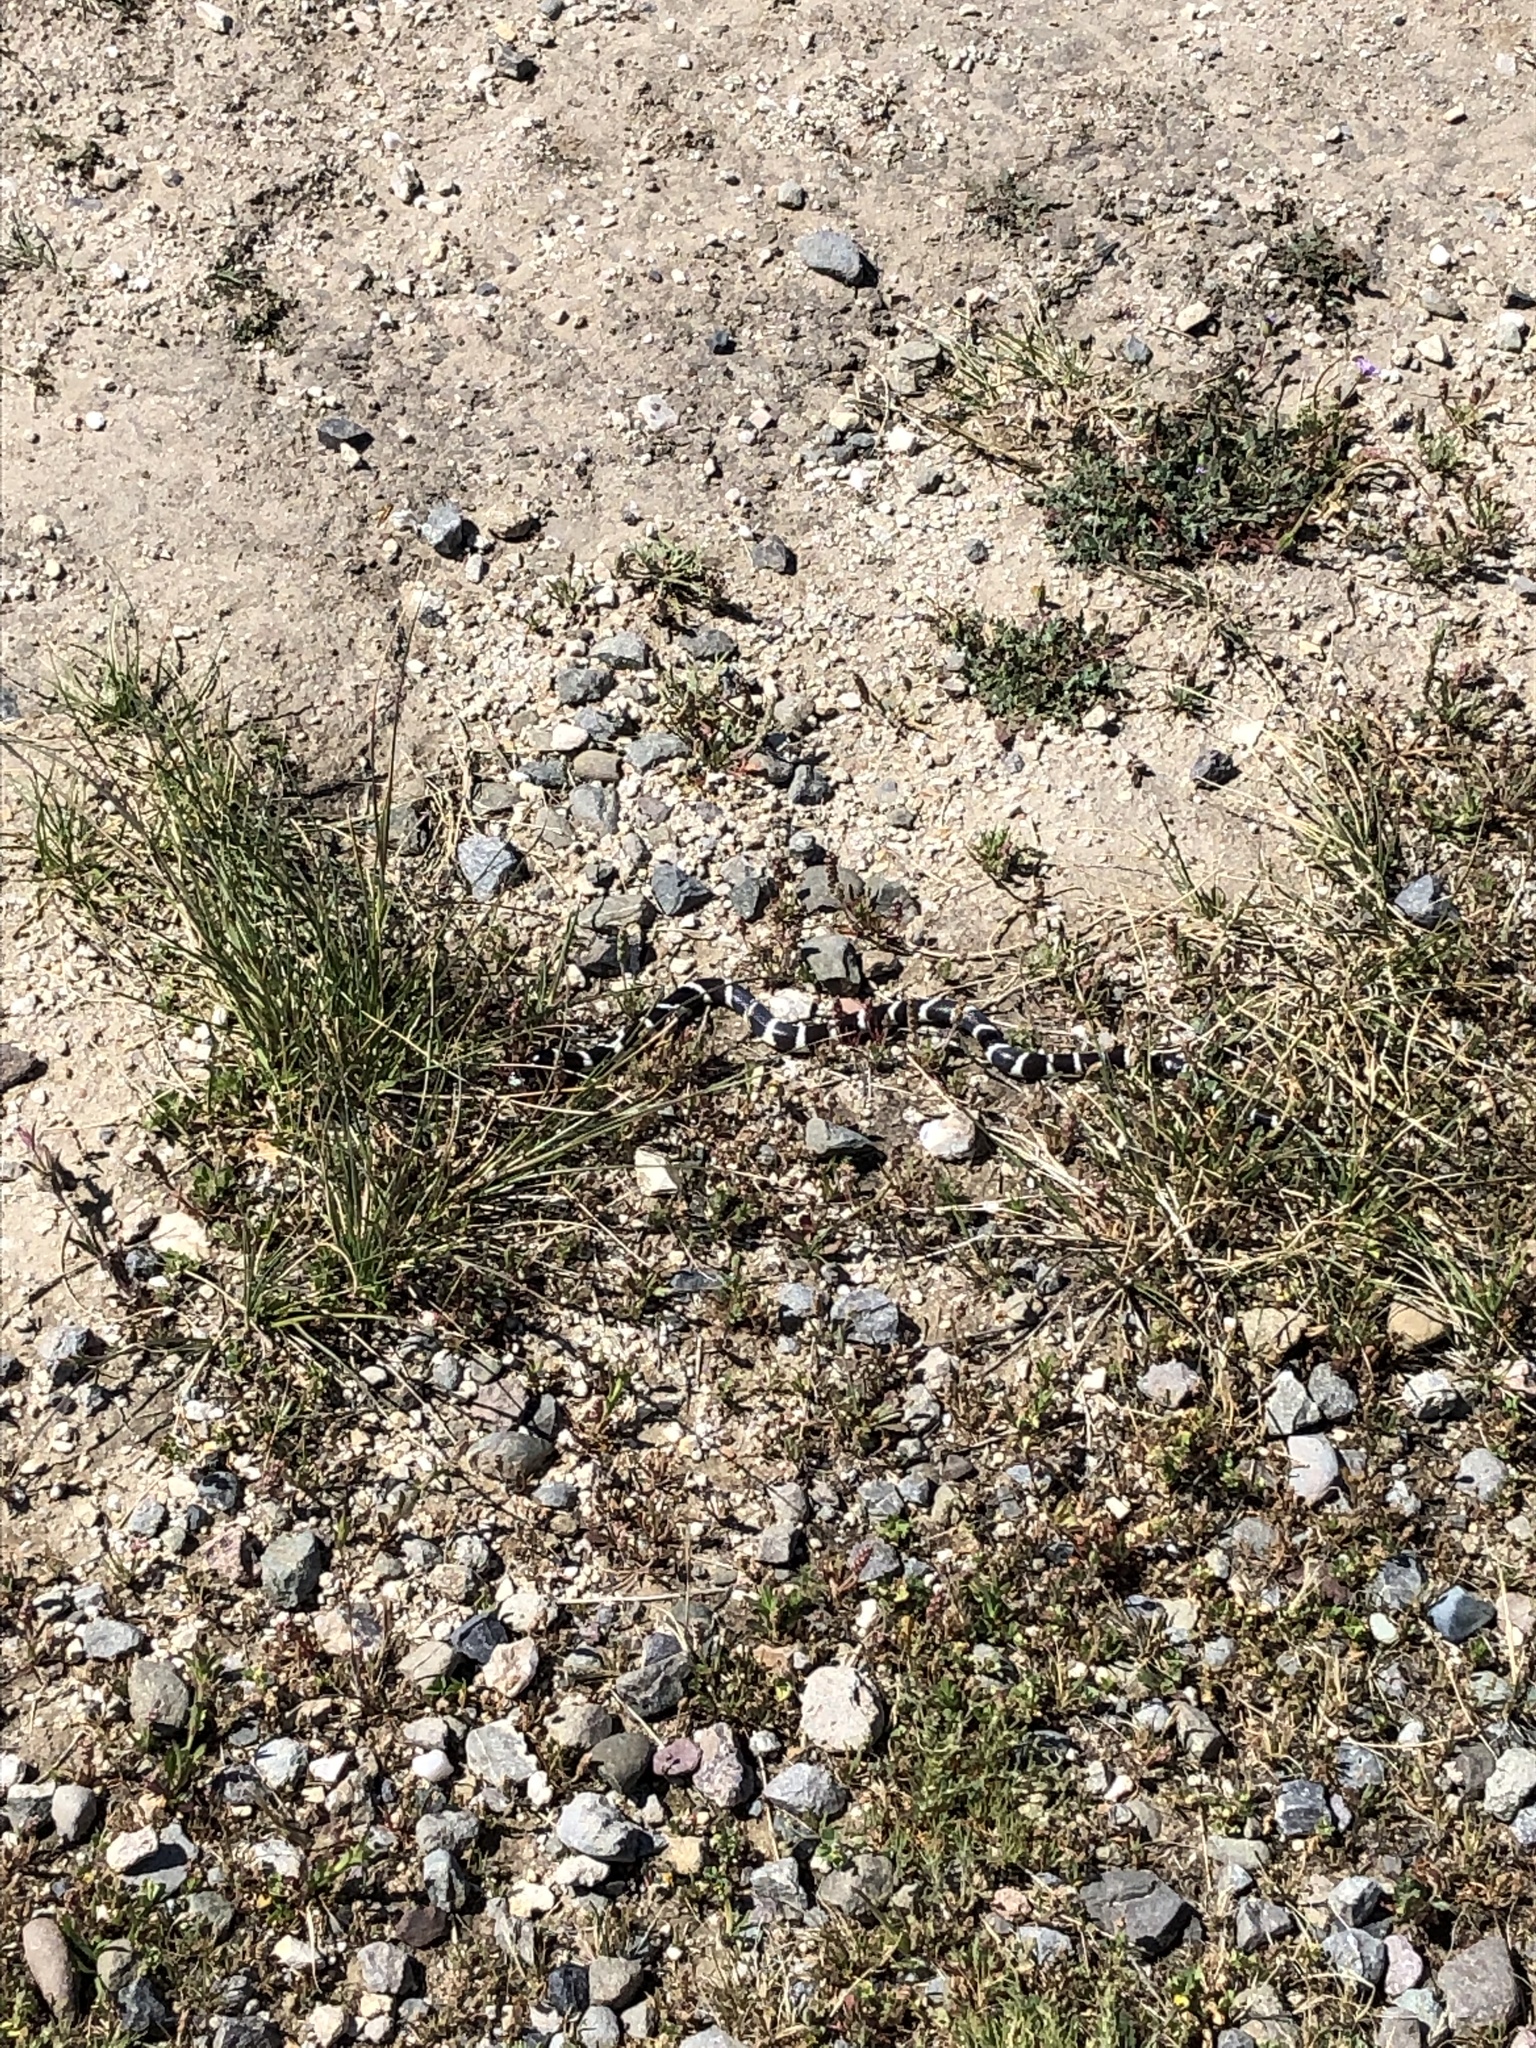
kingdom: Animalia
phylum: Chordata
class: Squamata
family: Colubridae
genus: Lampropeltis
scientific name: Lampropeltis californiae
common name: California kingsnake
